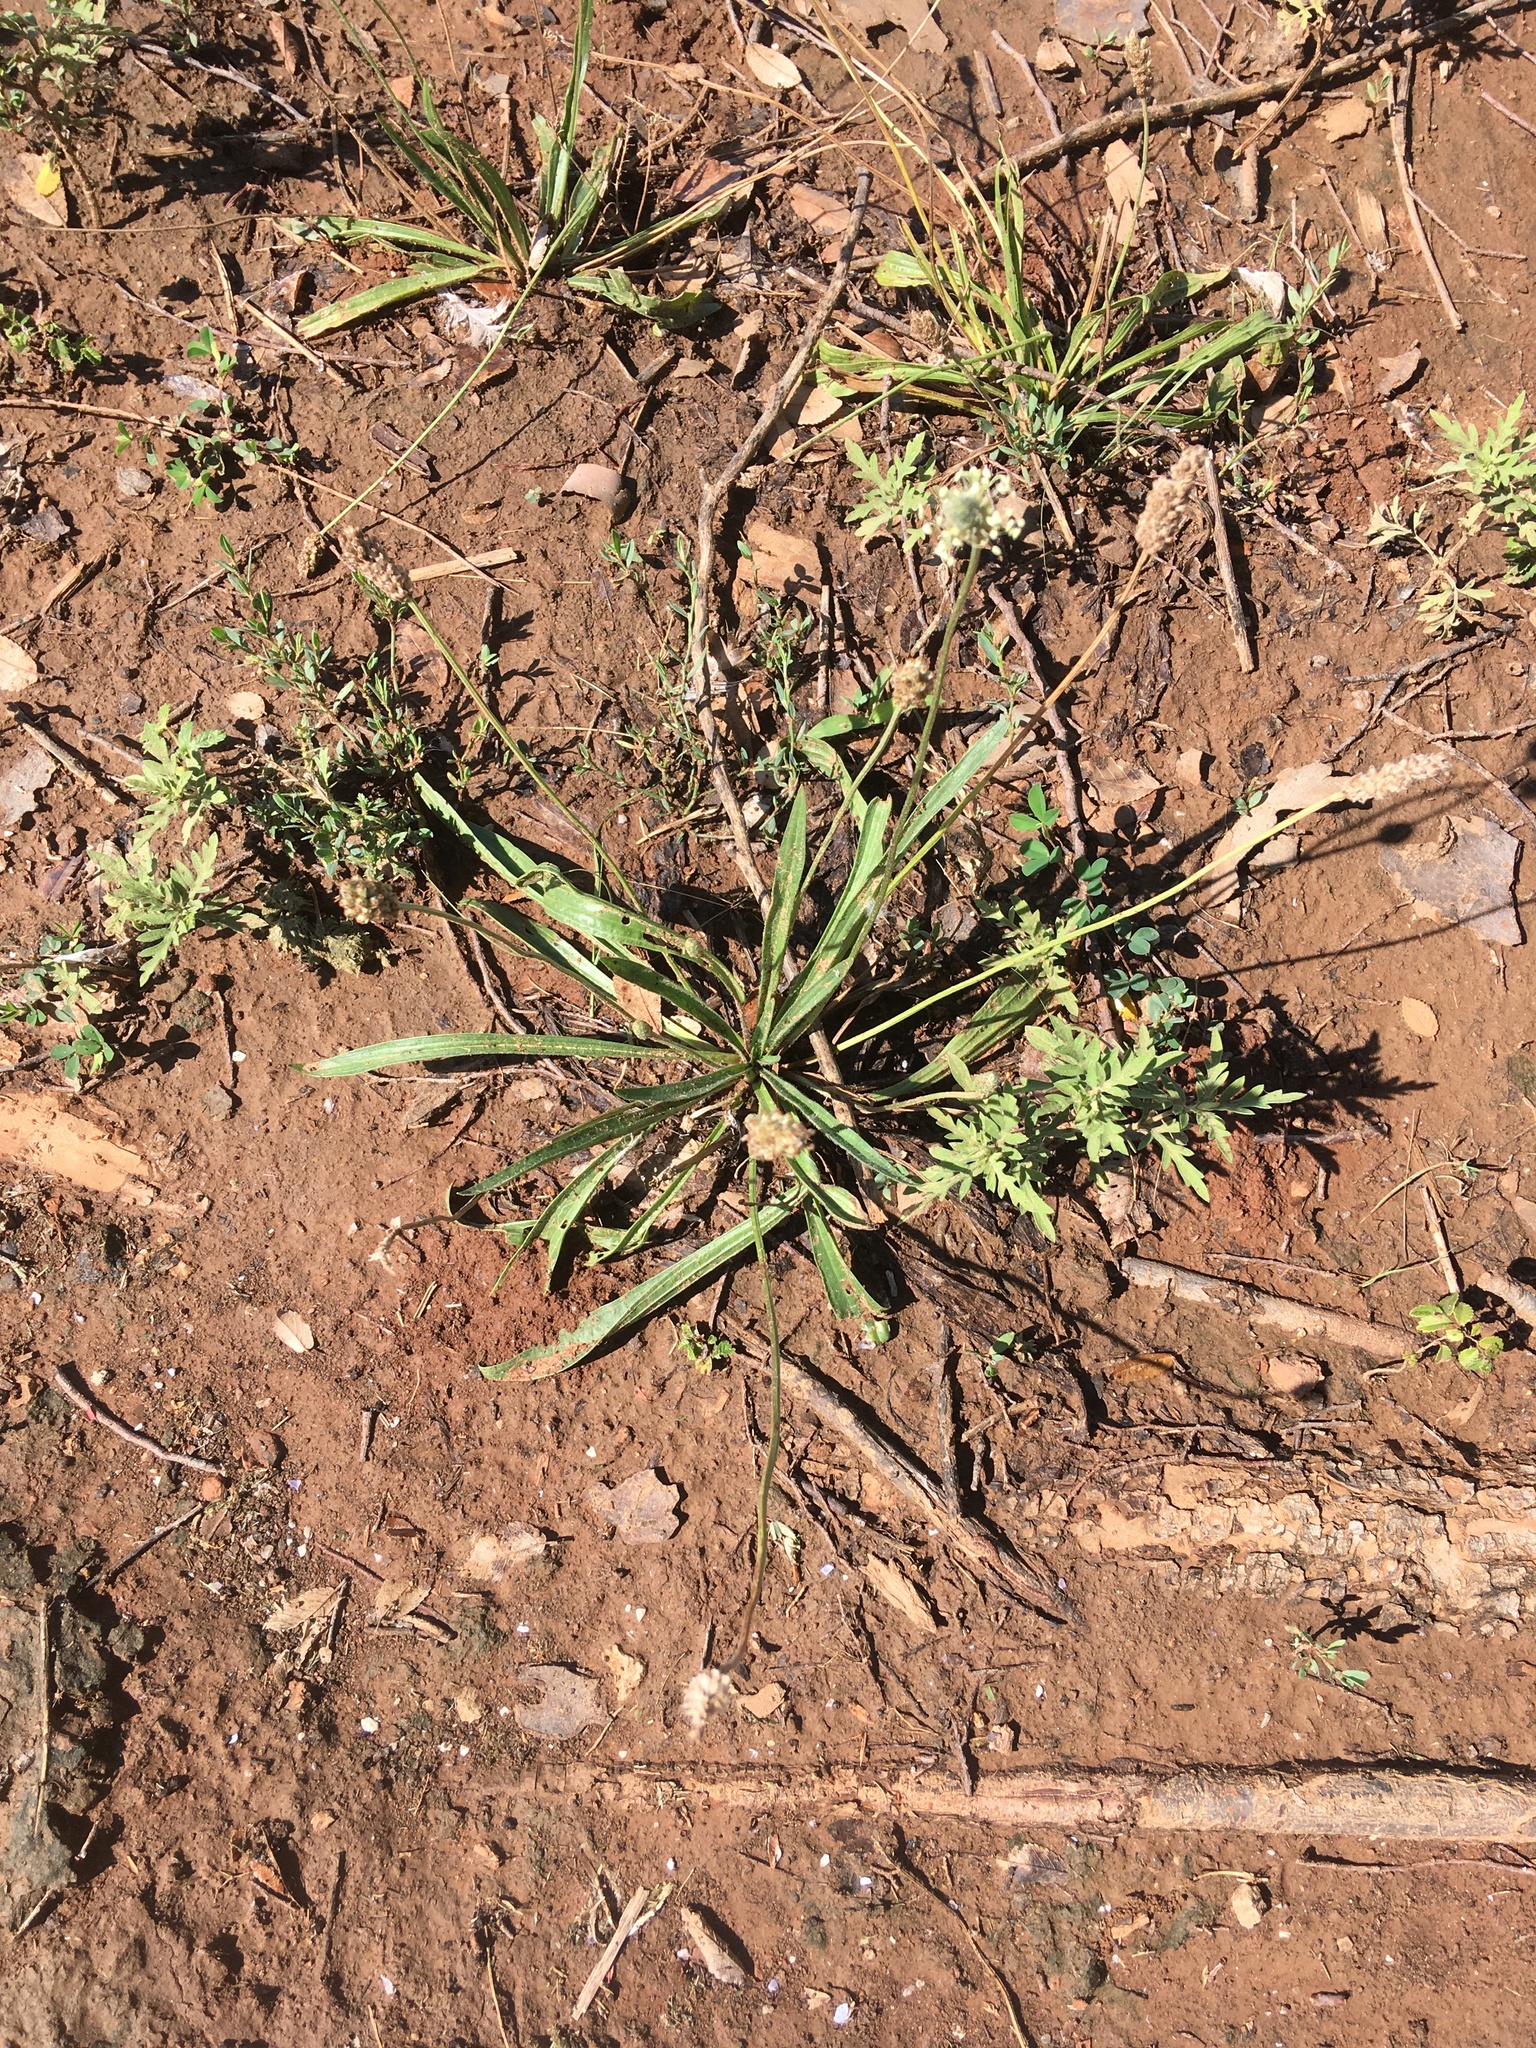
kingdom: Plantae
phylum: Tracheophyta
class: Magnoliopsida
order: Lamiales
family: Plantaginaceae
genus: Plantago
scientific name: Plantago lanceolata
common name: Ribwort plantain
